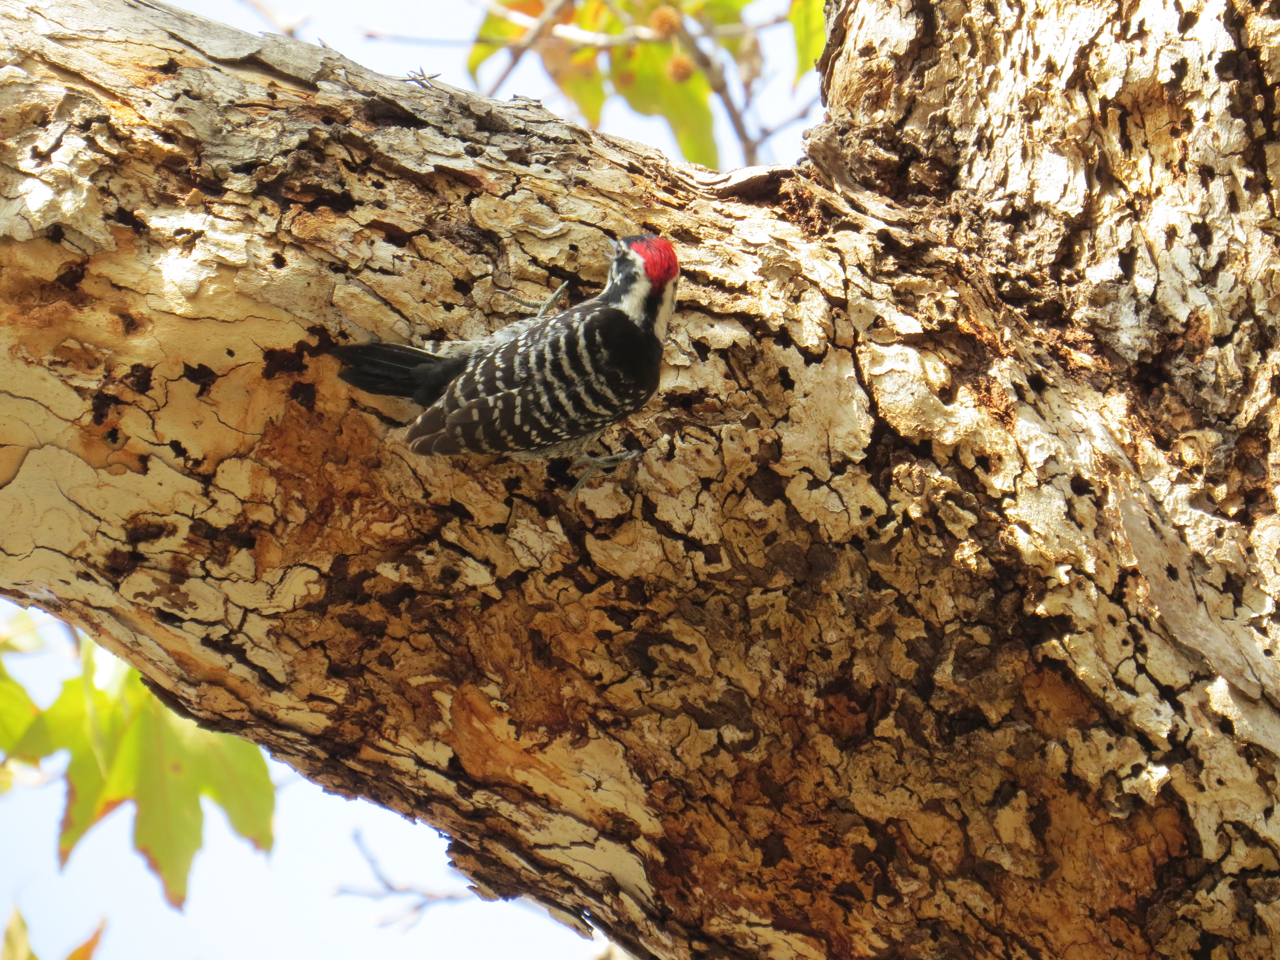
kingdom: Animalia
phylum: Chordata
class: Aves
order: Piciformes
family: Picidae
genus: Dryobates
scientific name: Dryobates nuttallii
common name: Nuttall's woodpecker
